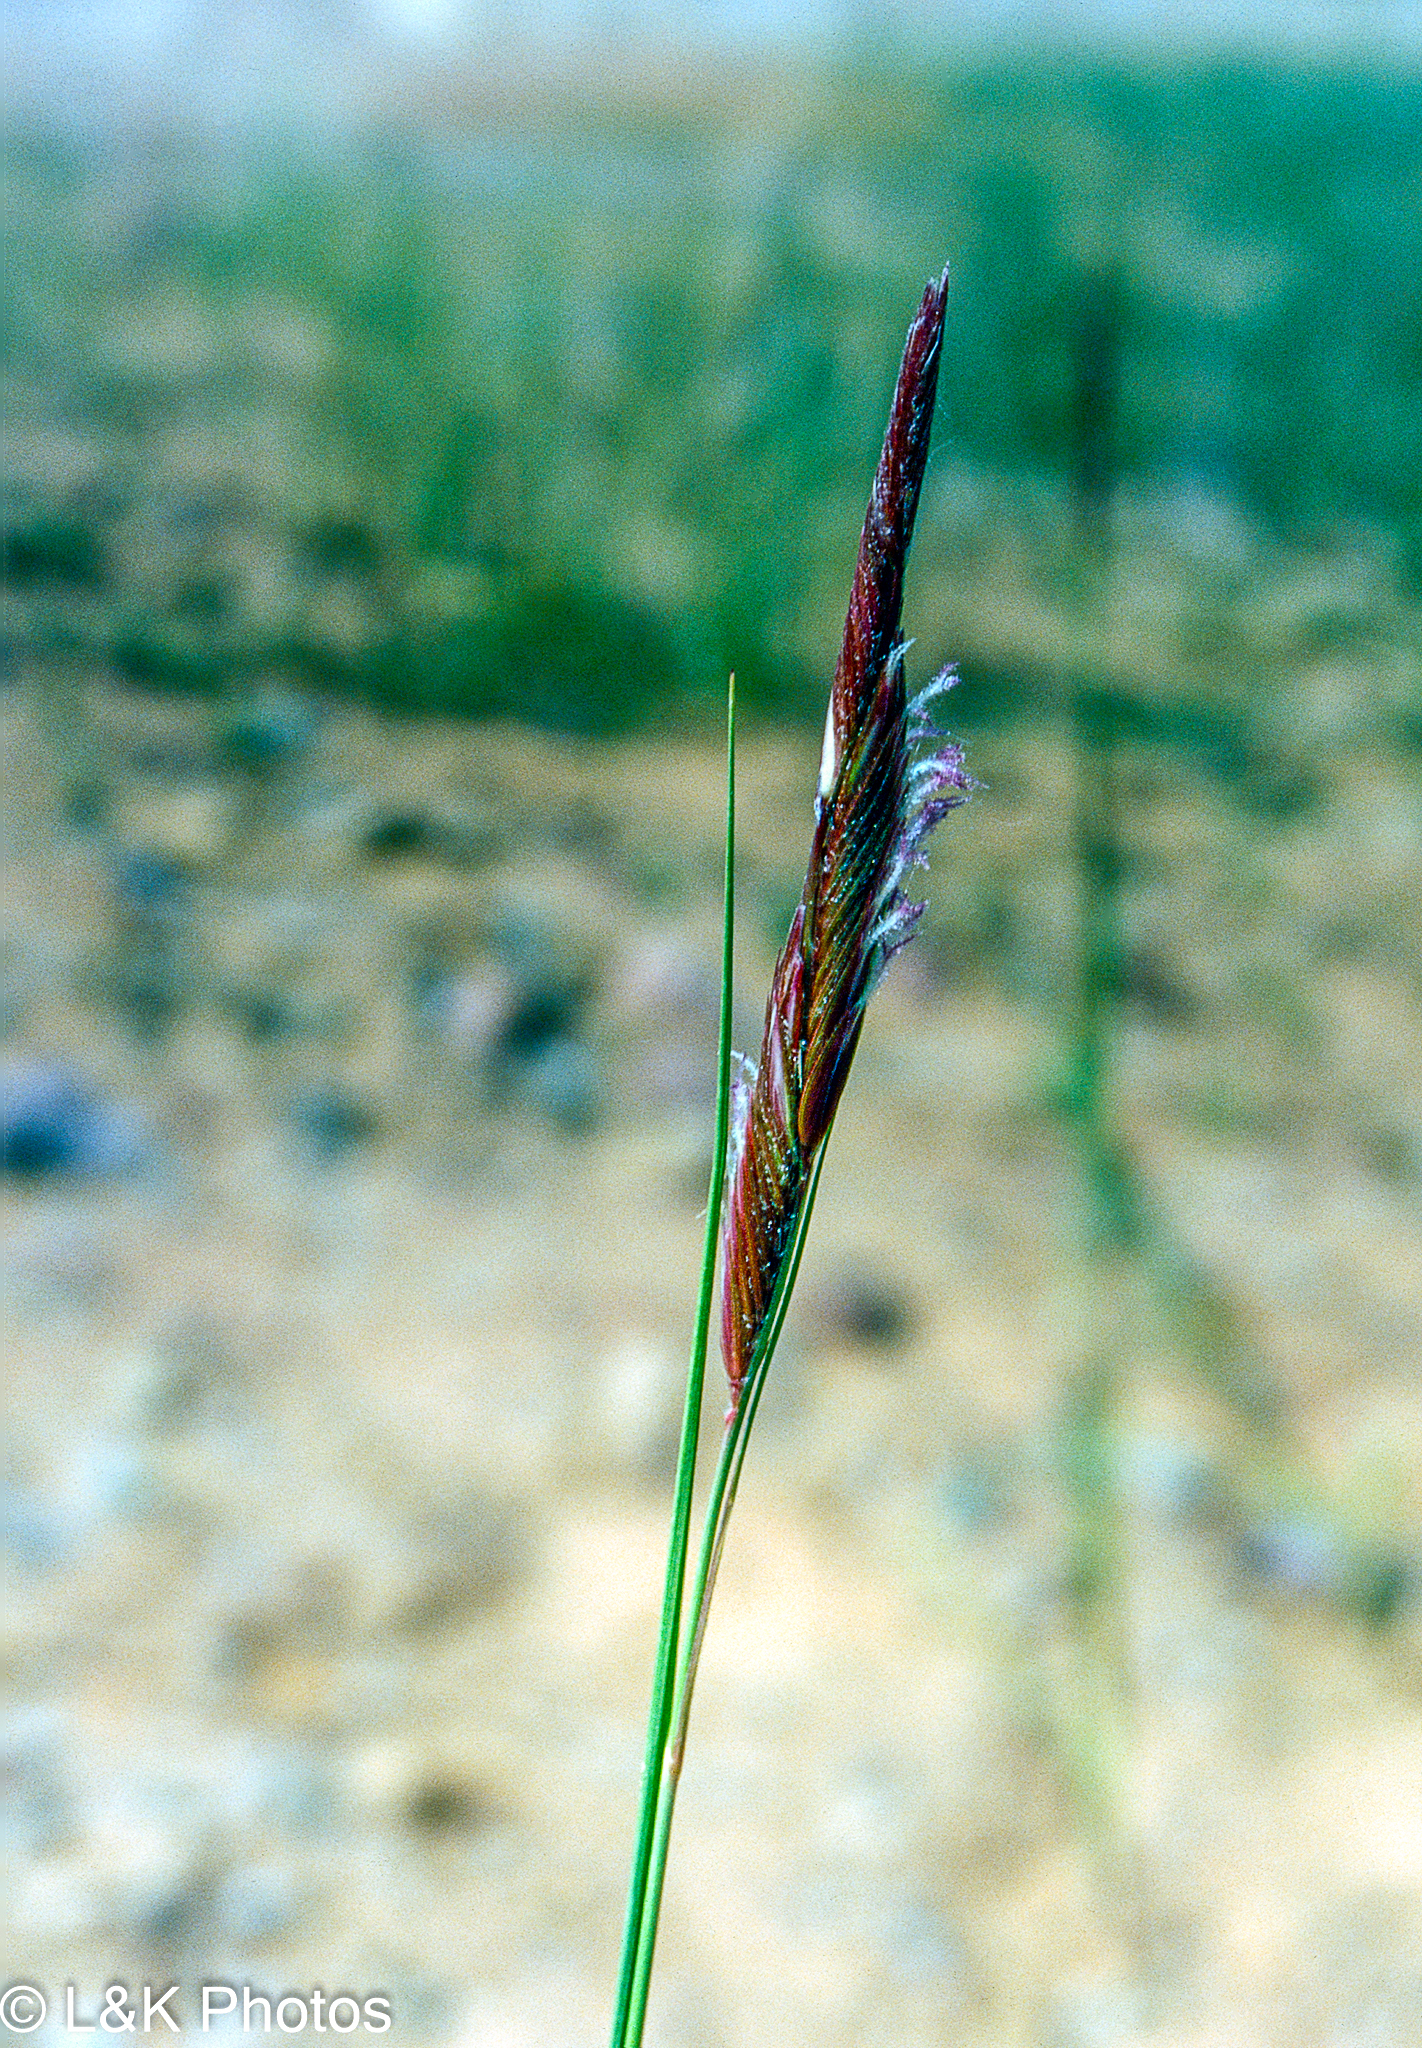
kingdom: Plantae
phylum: Tracheophyta
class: Liliopsida
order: Poales
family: Poaceae
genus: Sporobolus
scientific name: Sporobolus hookerianus
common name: Alkali cordgrass
